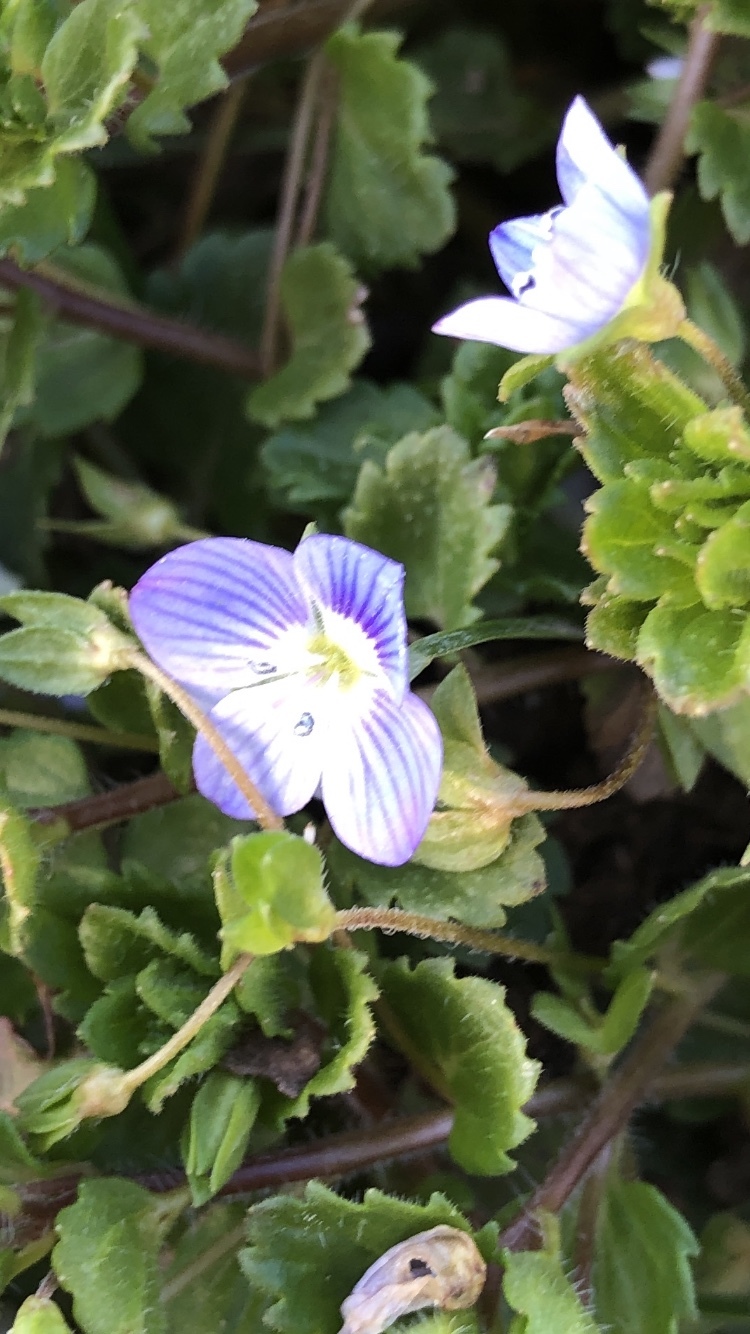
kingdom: Plantae
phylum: Tracheophyta
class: Magnoliopsida
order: Lamiales
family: Plantaginaceae
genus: Veronica
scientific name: Veronica persica
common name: Common field-speedwell
